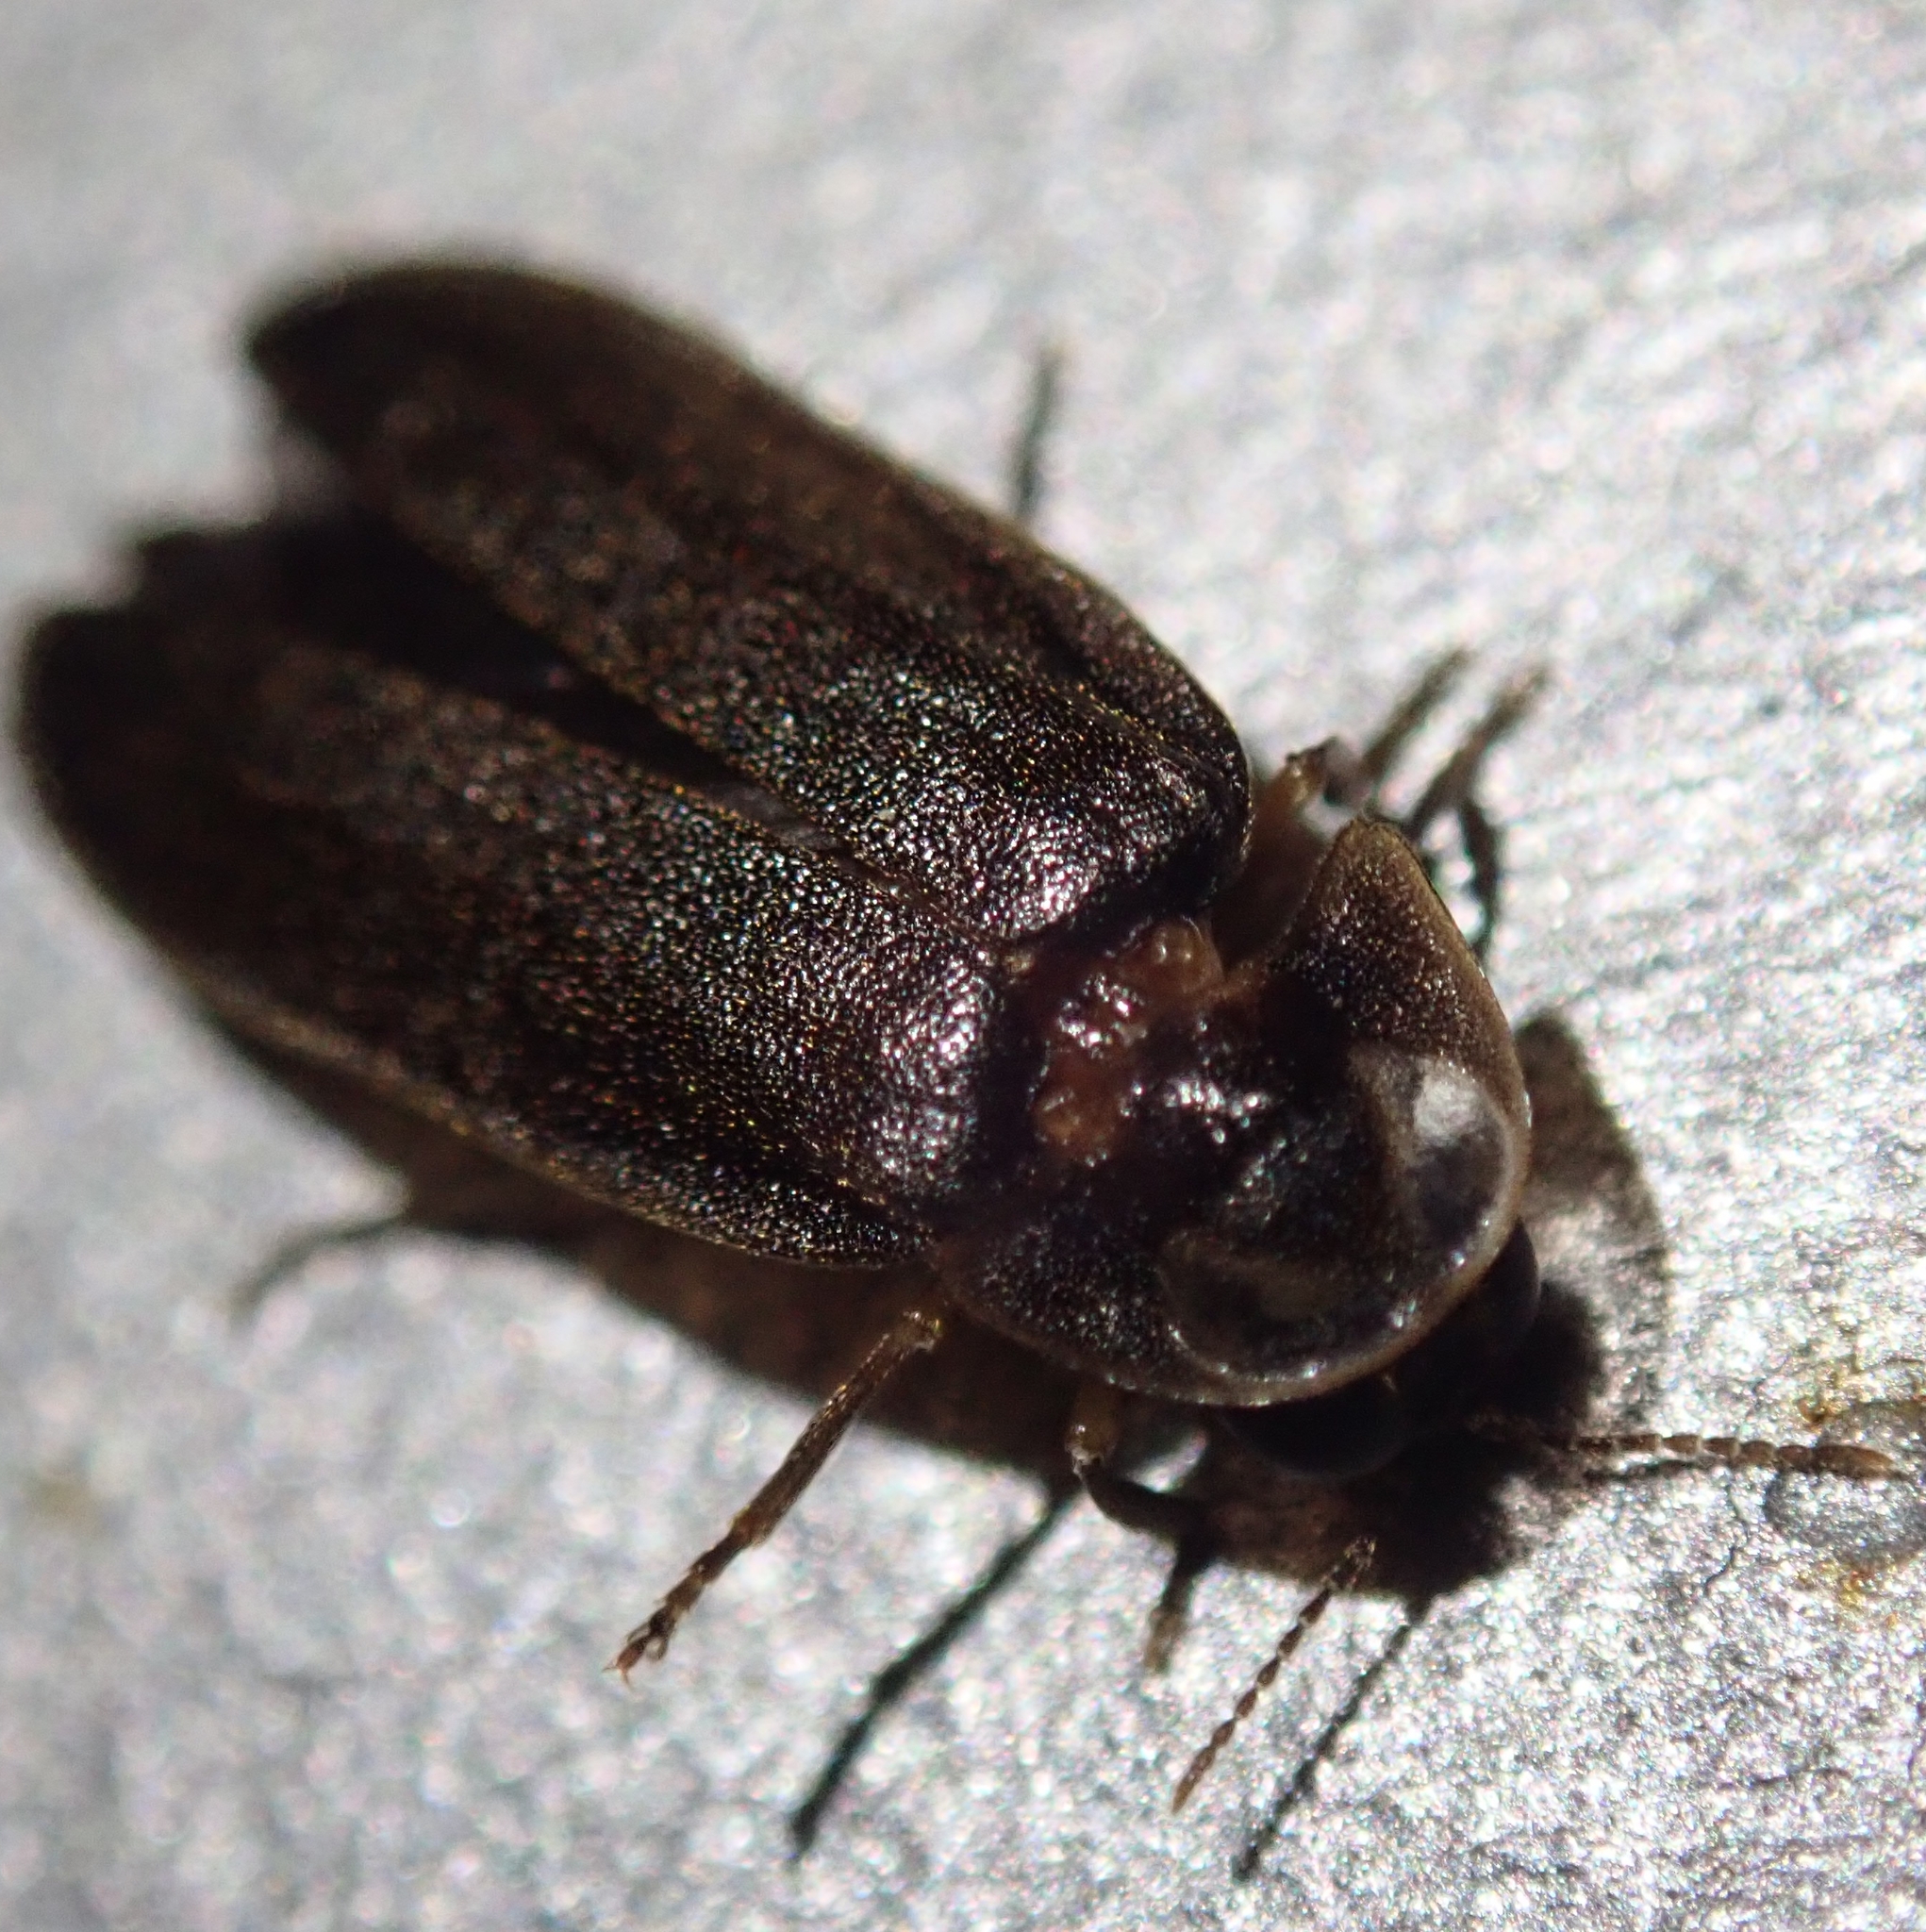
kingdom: Animalia
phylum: Arthropoda
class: Insecta
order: Coleoptera
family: Lampyridae
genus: Lamprohiza
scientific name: Lamprohiza splendidula
